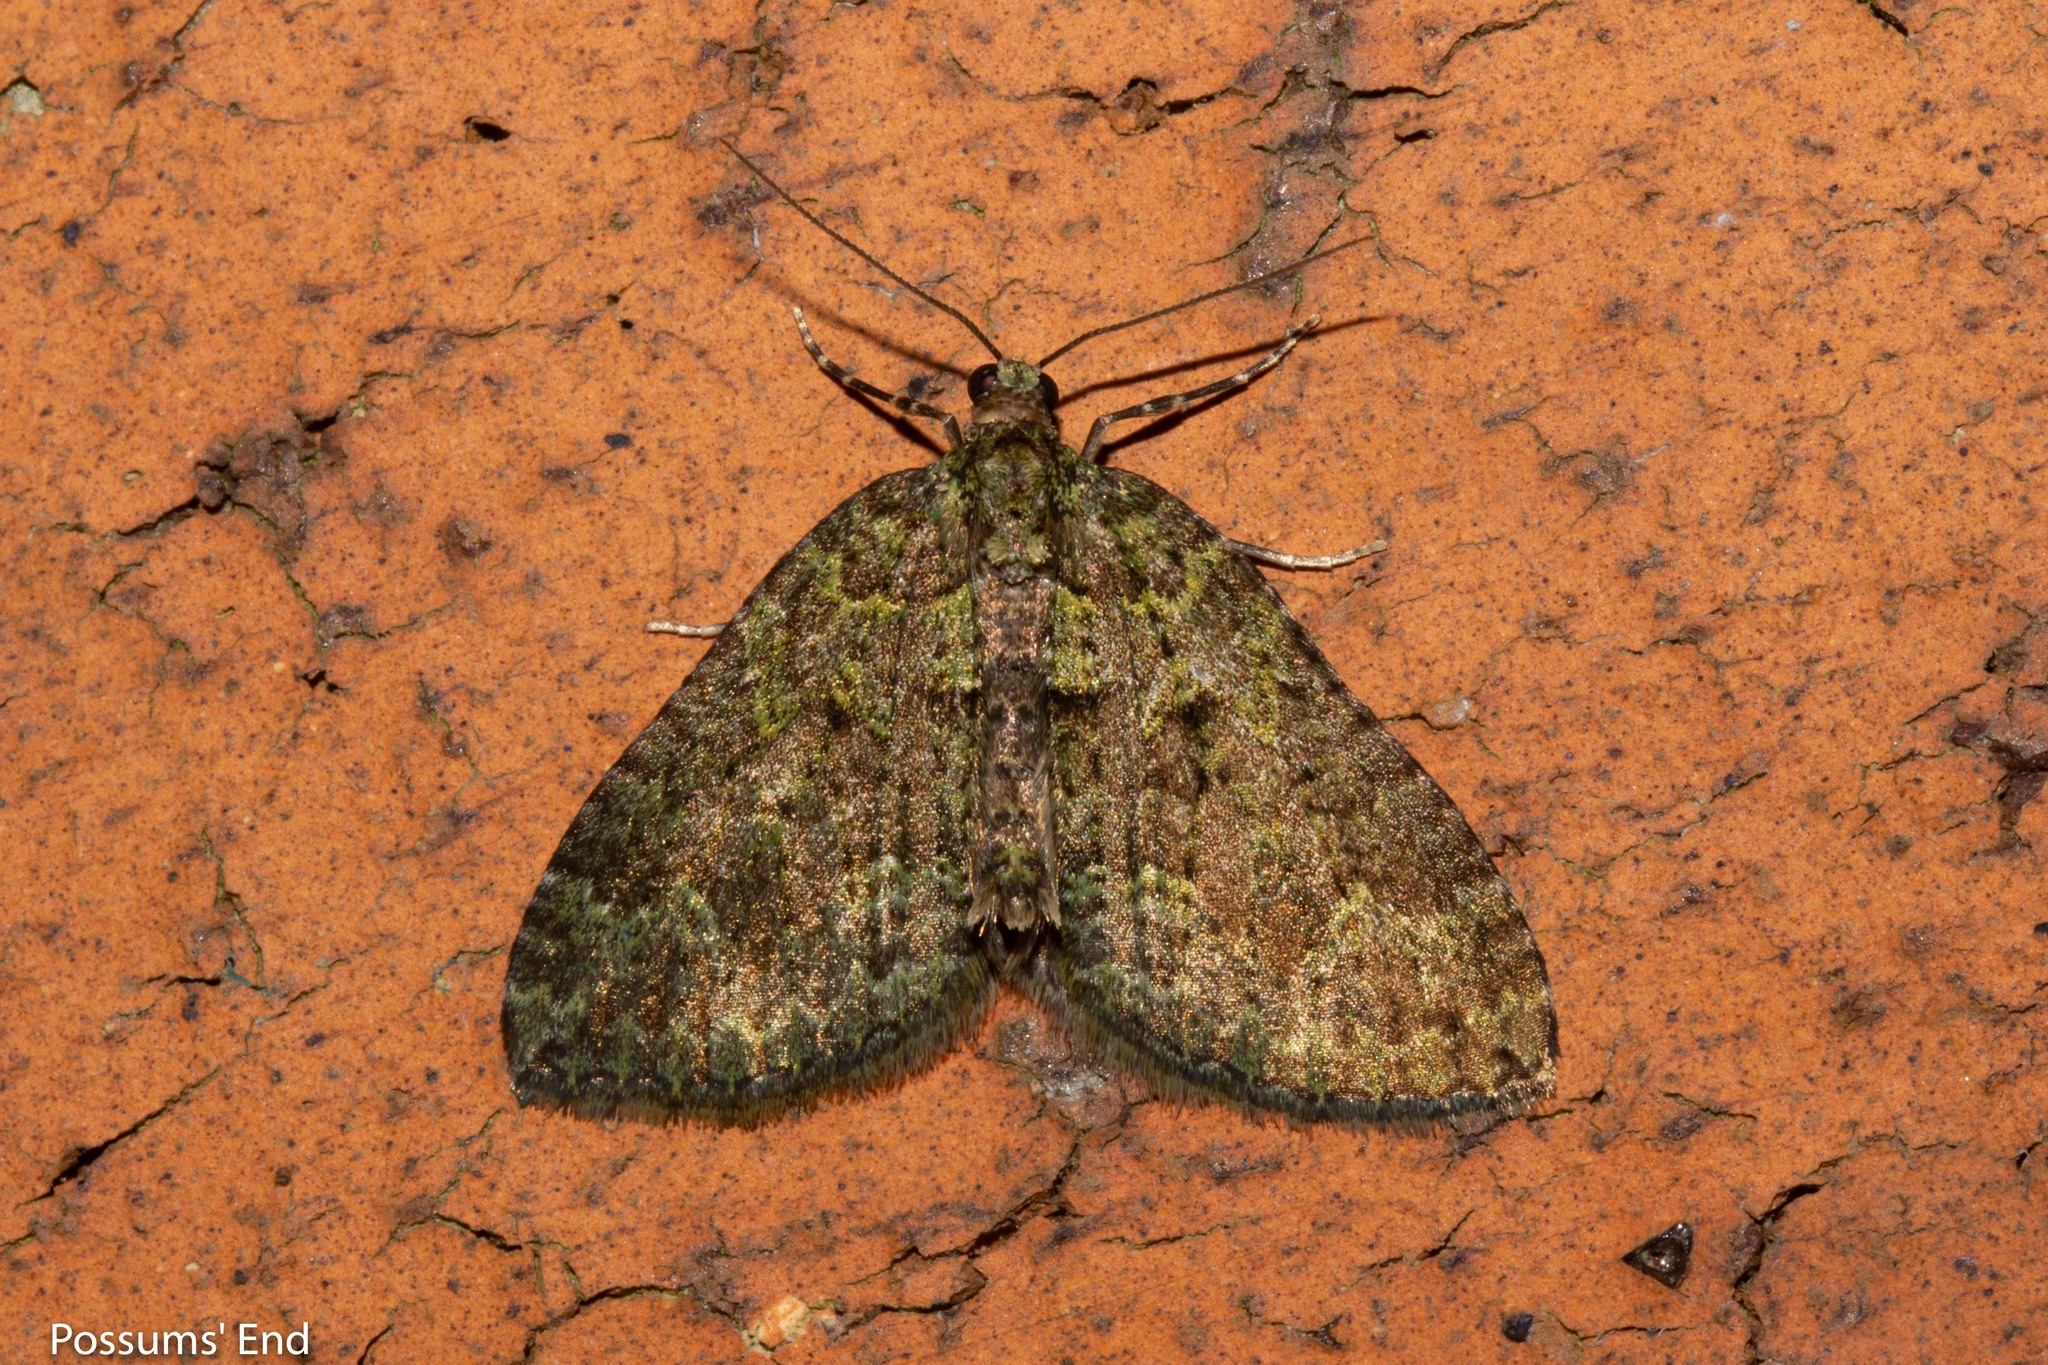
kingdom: Animalia
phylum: Arthropoda
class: Insecta
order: Lepidoptera
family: Geometridae
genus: Austrocidaria
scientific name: Austrocidaria callichlora
